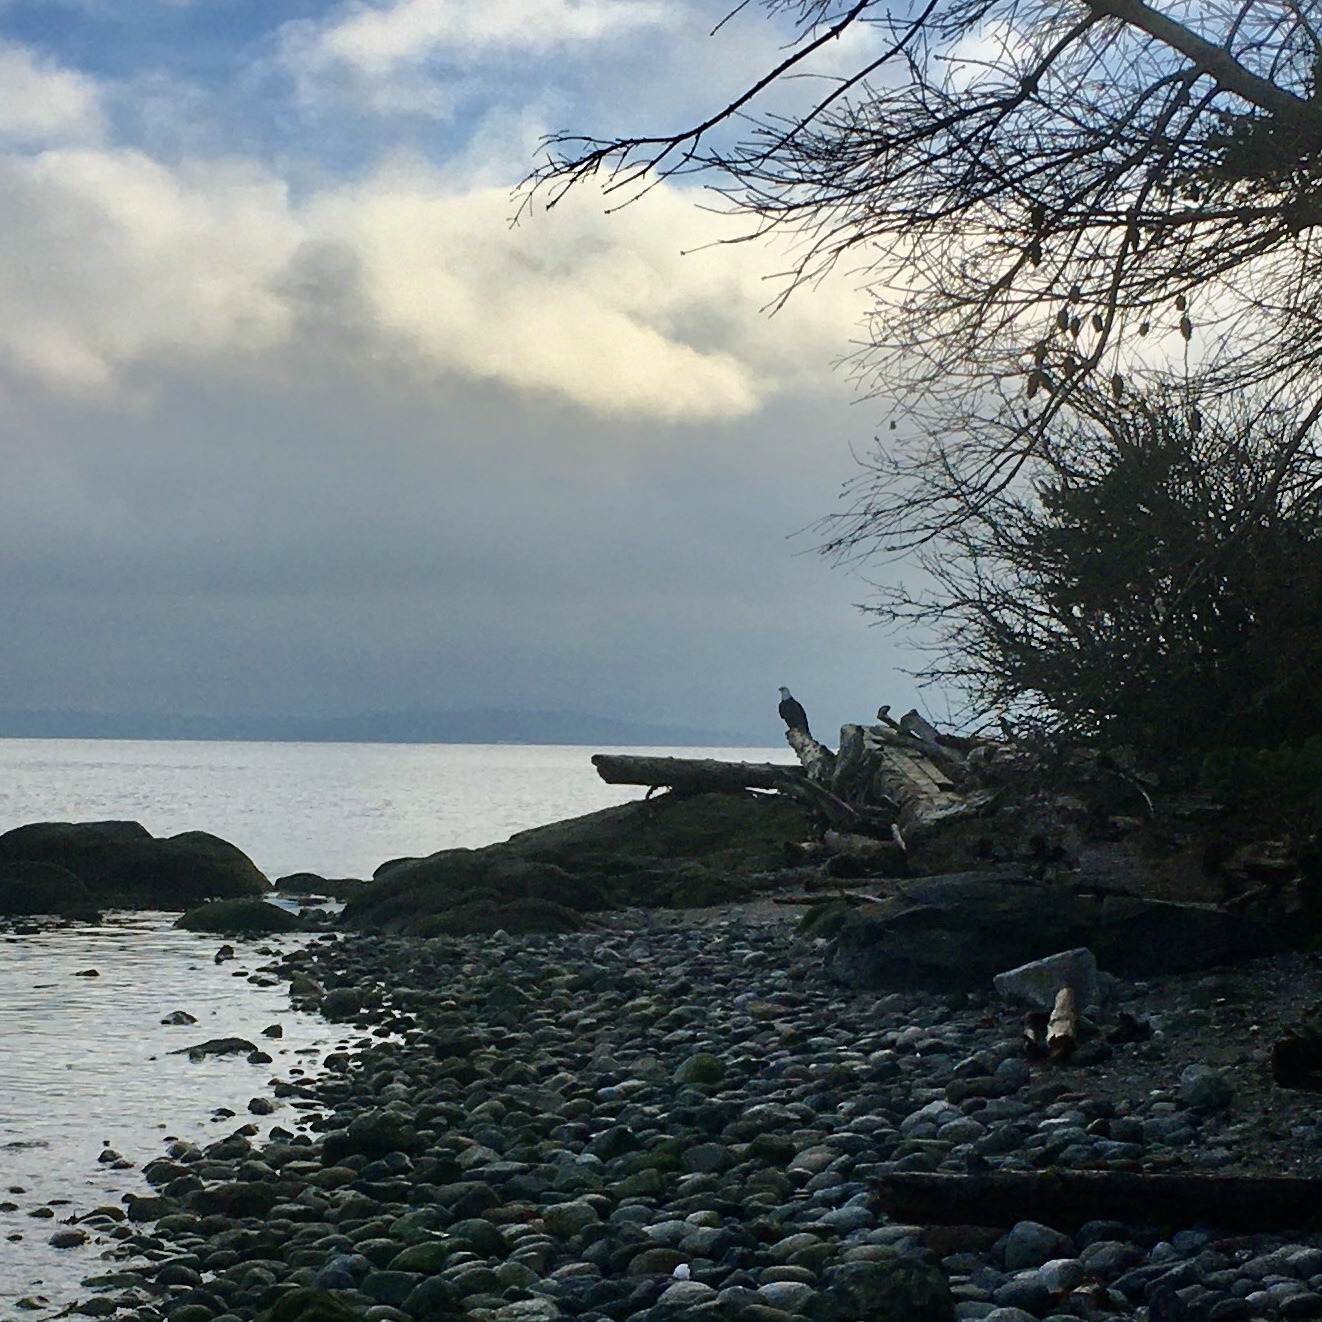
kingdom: Animalia
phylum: Chordata
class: Aves
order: Accipitriformes
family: Accipitridae
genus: Haliaeetus
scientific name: Haliaeetus leucocephalus
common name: Bald eagle
